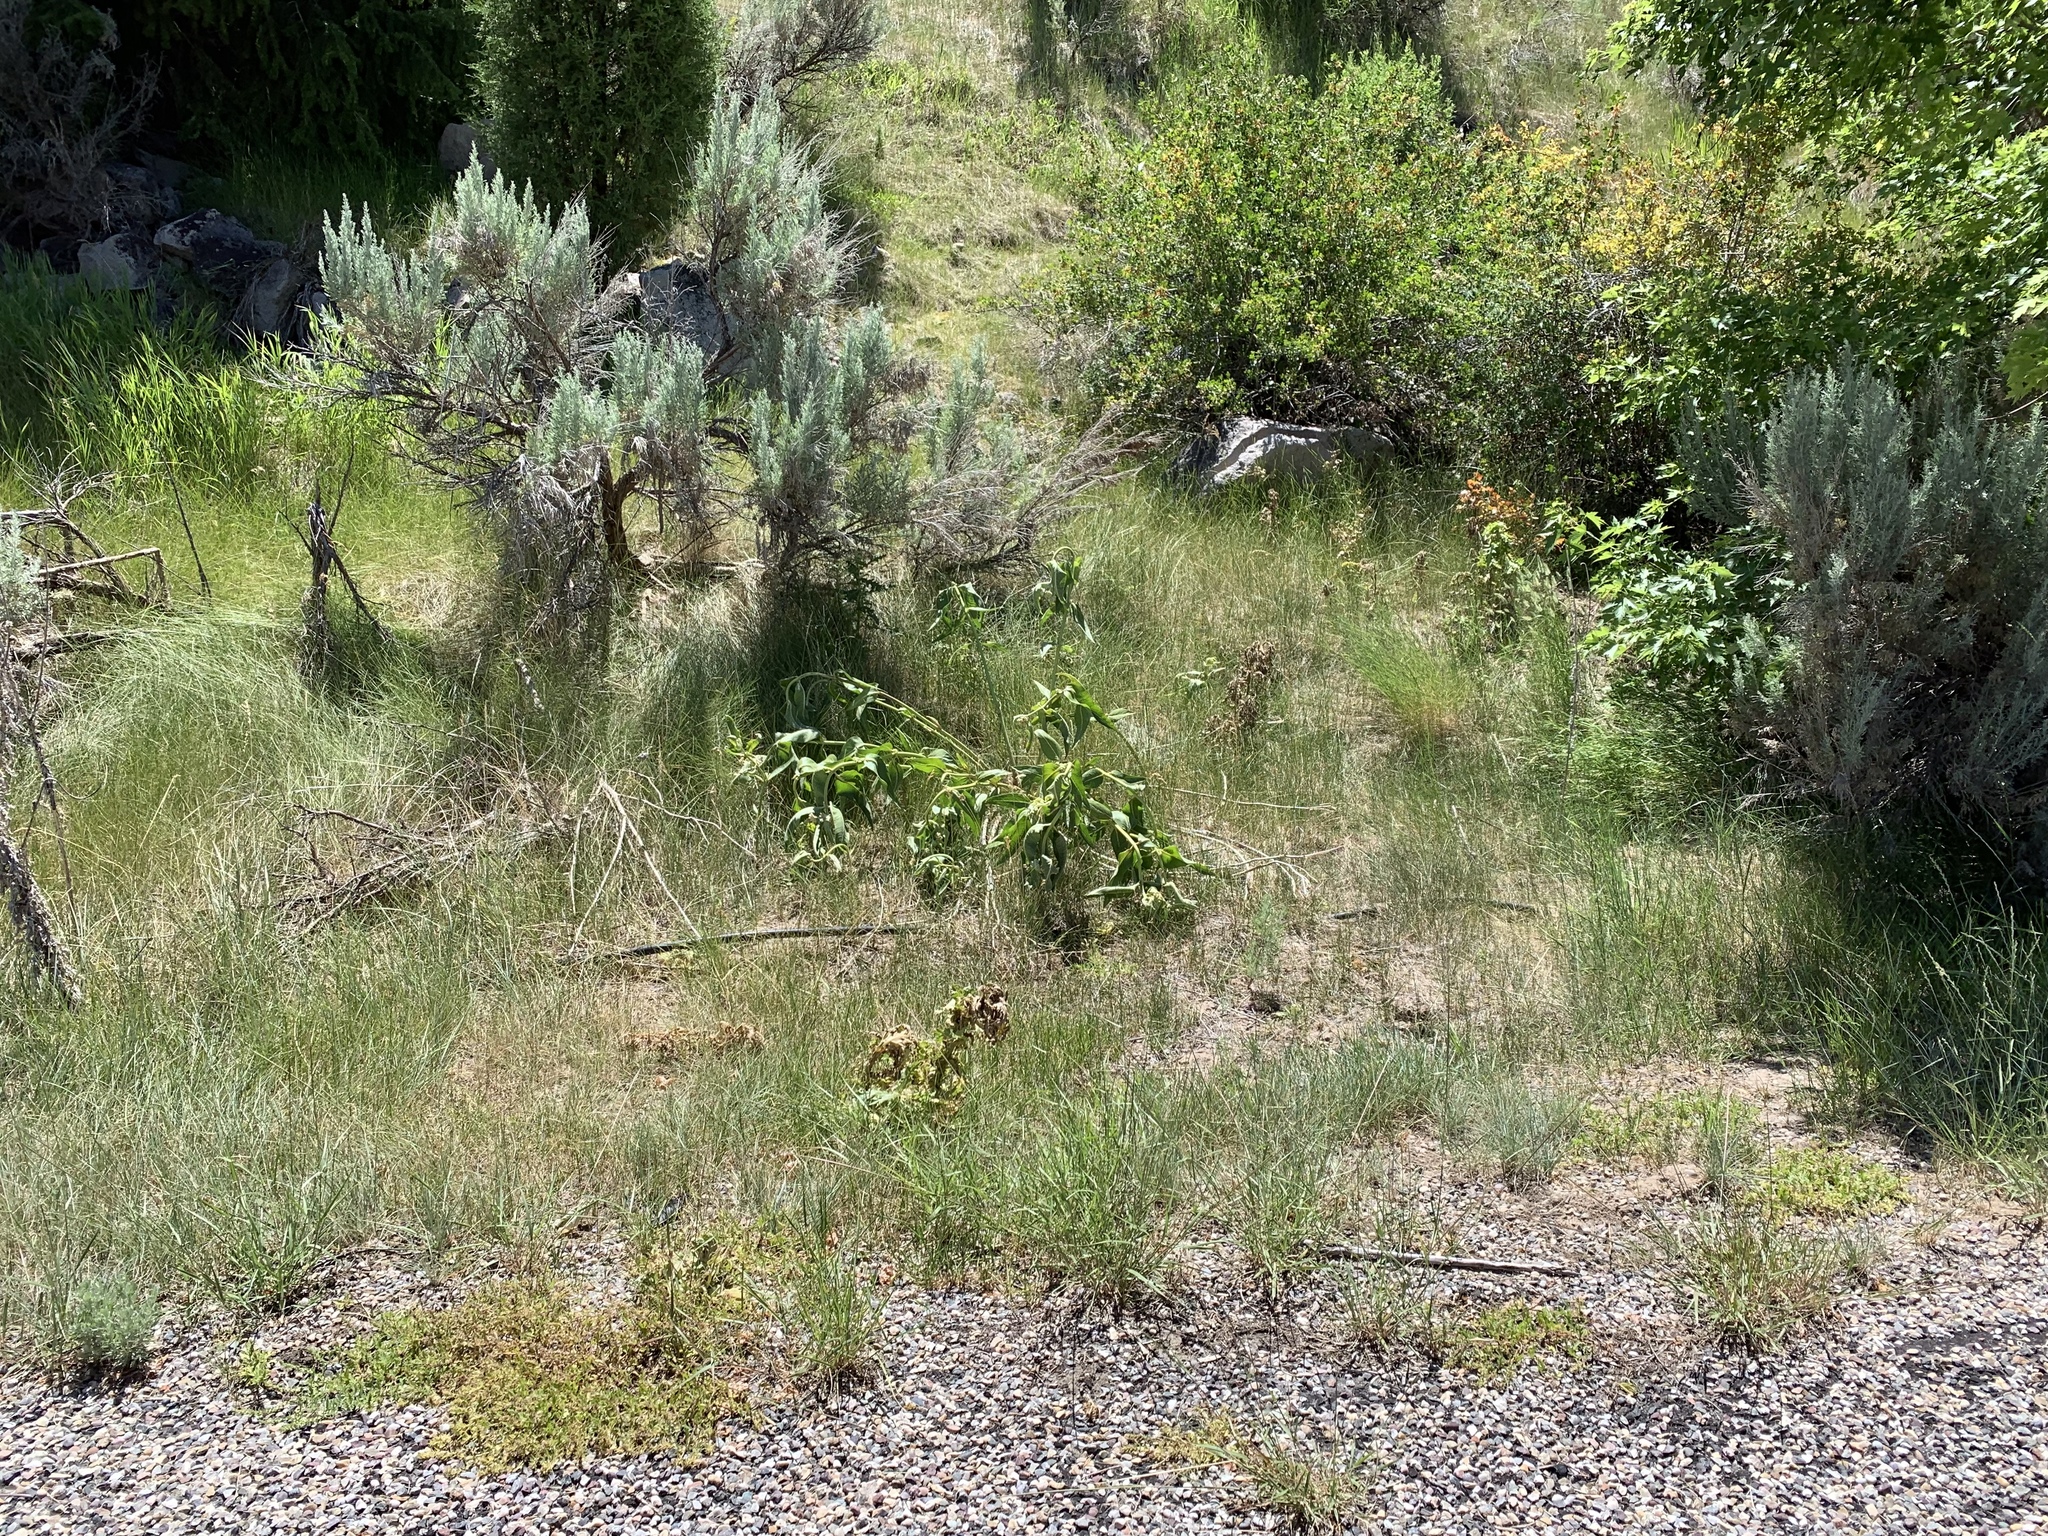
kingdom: Plantae
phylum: Tracheophyta
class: Magnoliopsida
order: Gentianales
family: Apocynaceae
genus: Asclepias
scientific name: Asclepias speciosa
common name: Showy milkweed
